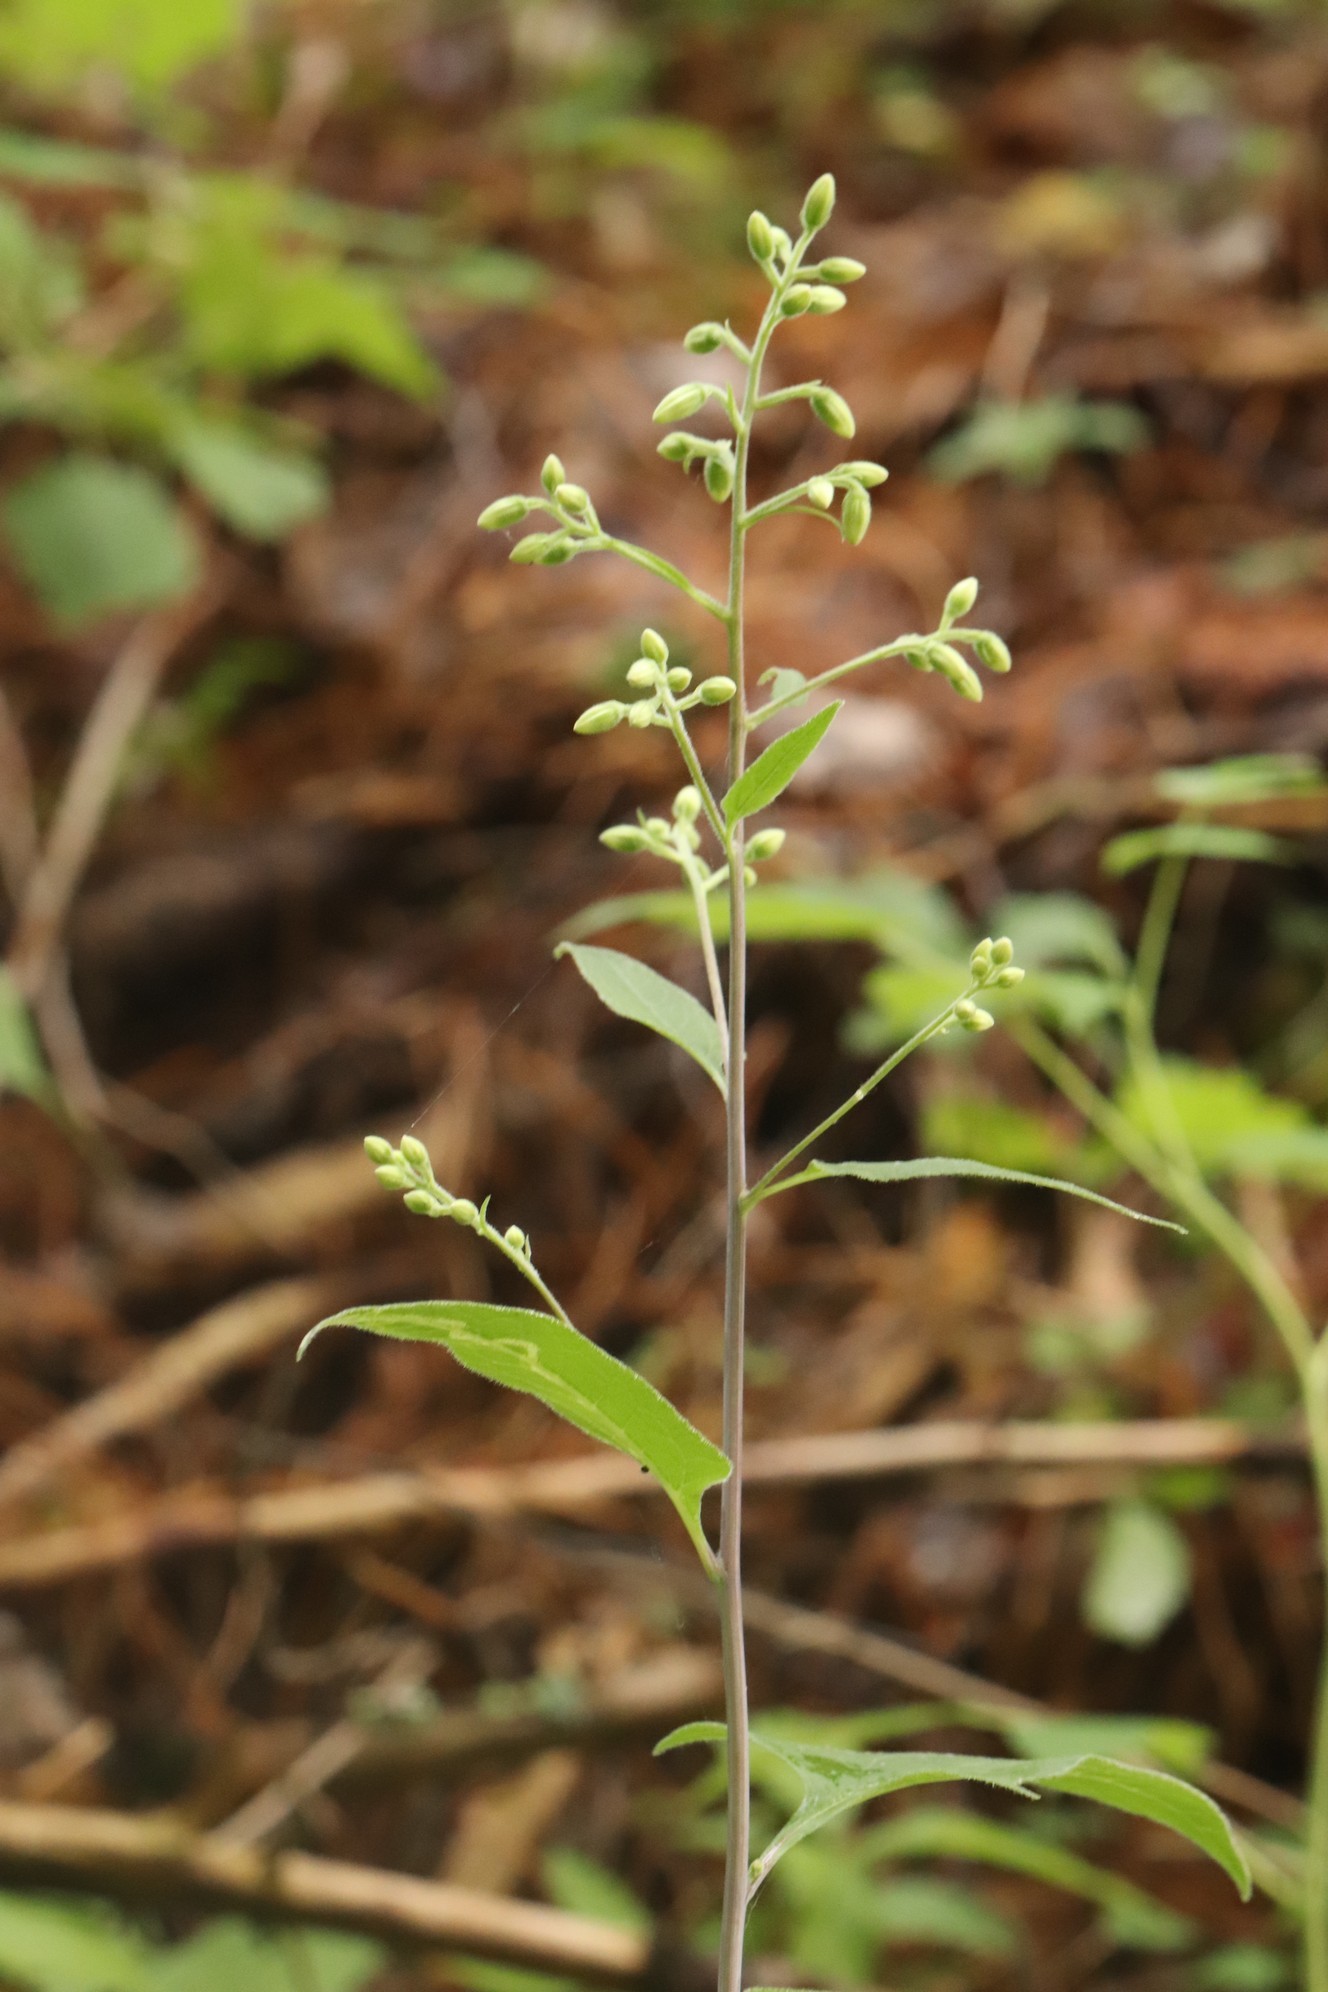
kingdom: Plantae
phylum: Tracheophyta
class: Magnoliopsida
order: Asterales
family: Asteraceae
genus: Parasenecio
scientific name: Parasenecio hastatus
